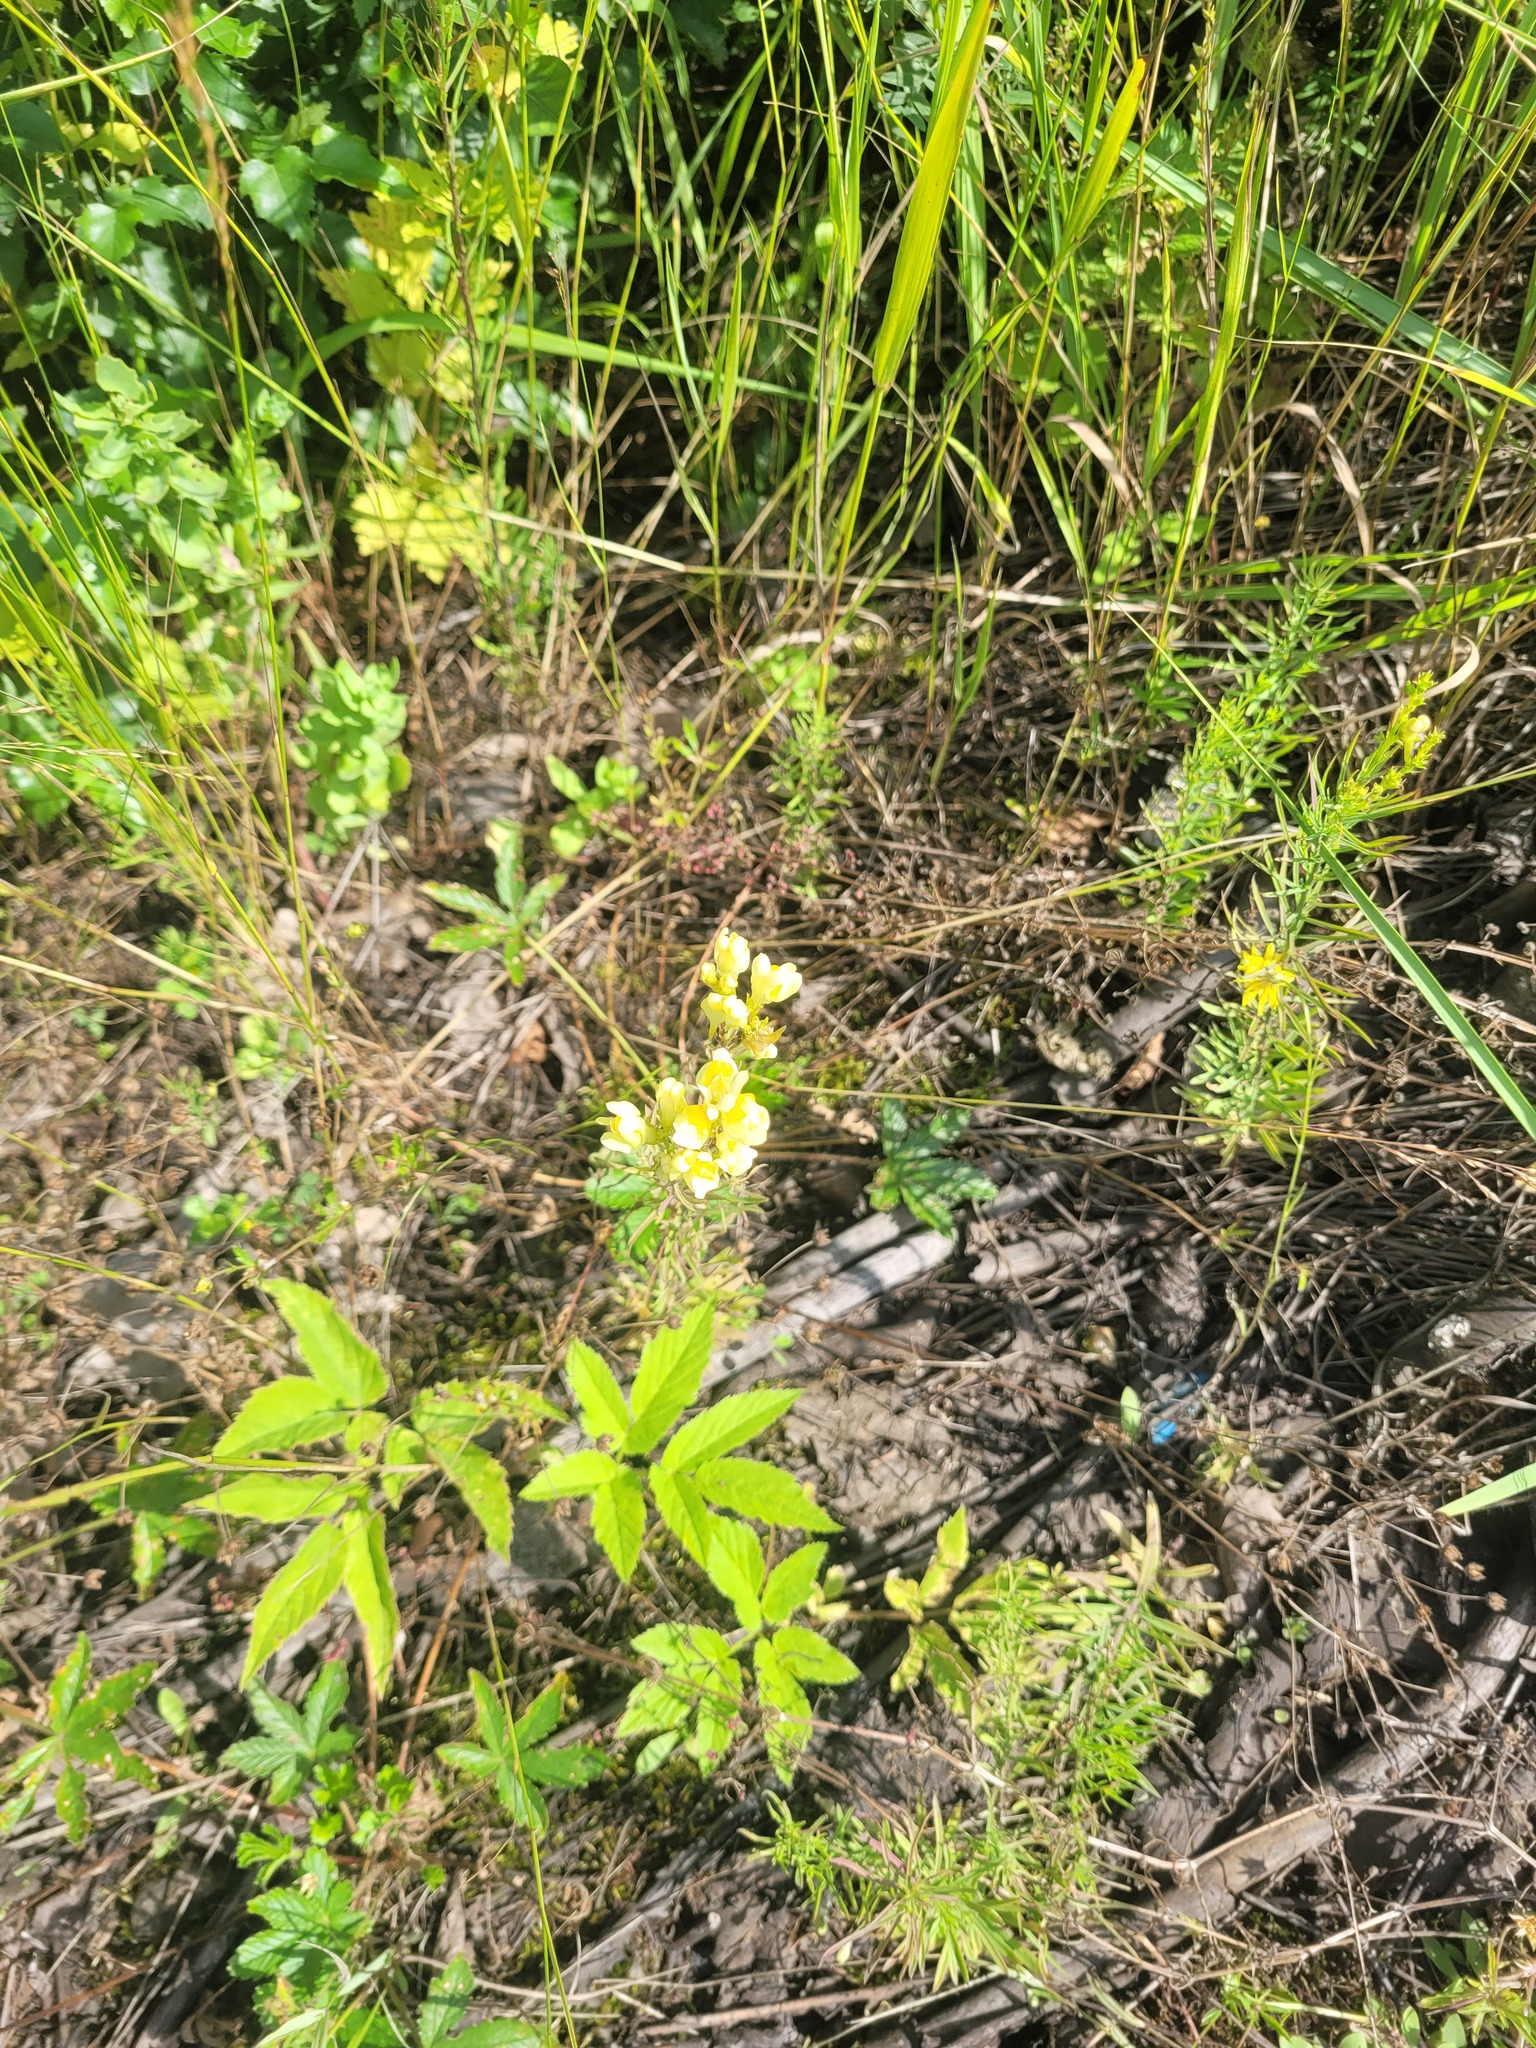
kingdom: Plantae
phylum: Tracheophyta
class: Magnoliopsida
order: Lamiales
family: Plantaginaceae
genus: Linaria
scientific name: Linaria vulgaris
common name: Butter and eggs
